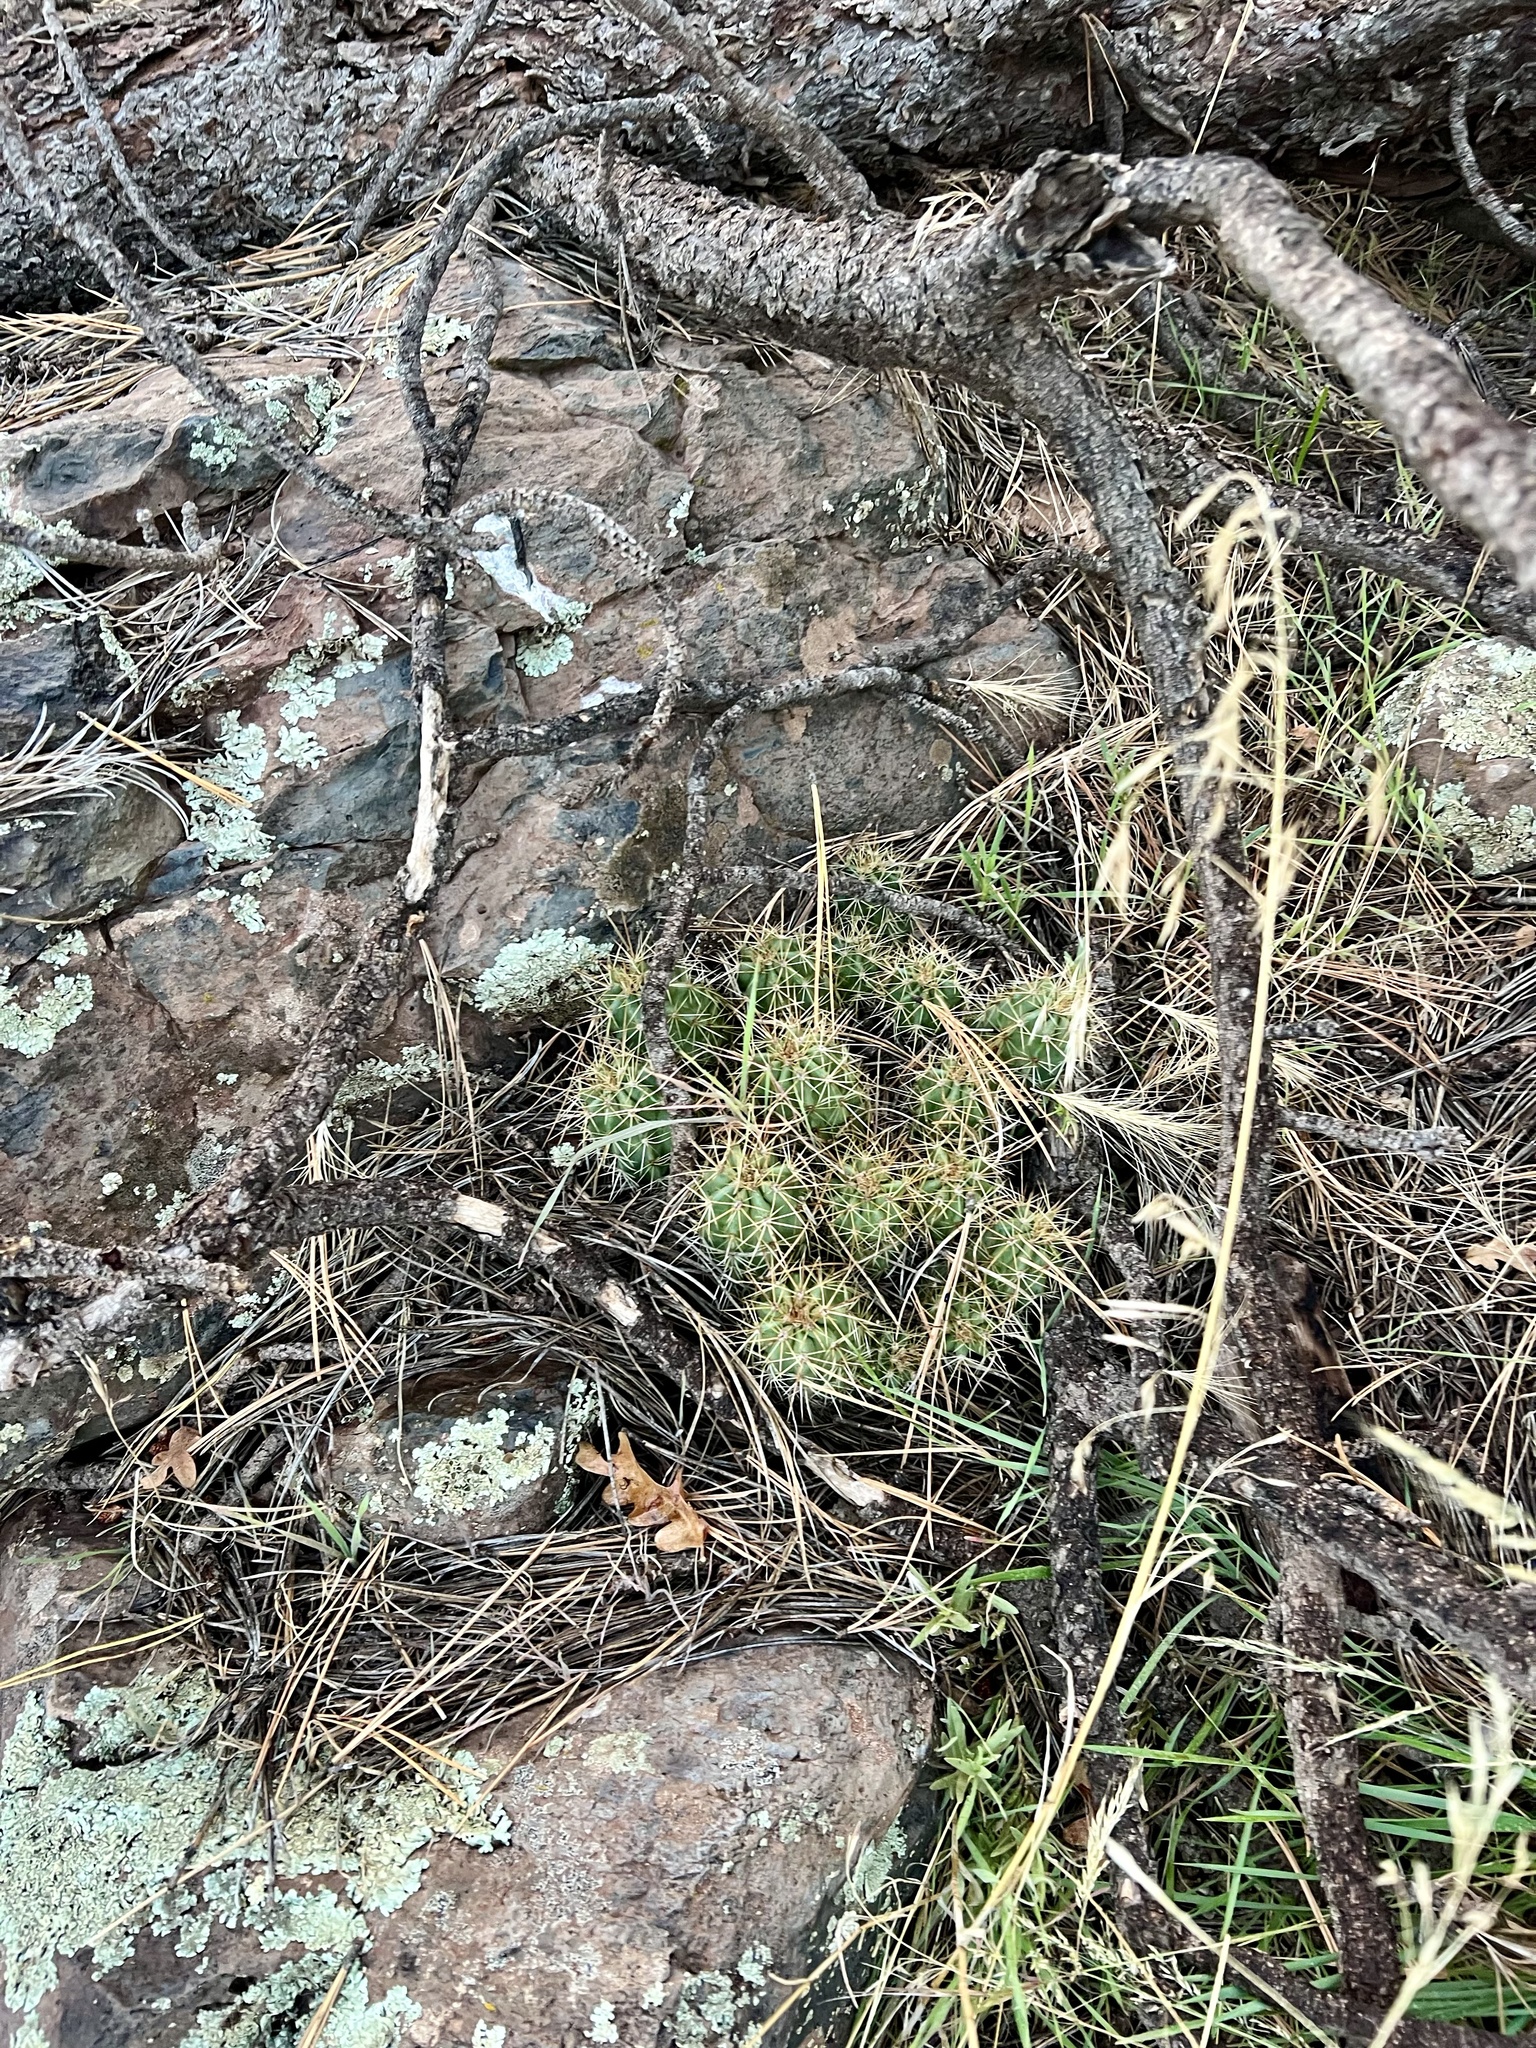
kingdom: Plantae
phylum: Tracheophyta
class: Magnoliopsida
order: Caryophyllales
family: Cactaceae
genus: Echinocereus
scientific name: Echinocereus bakeri
